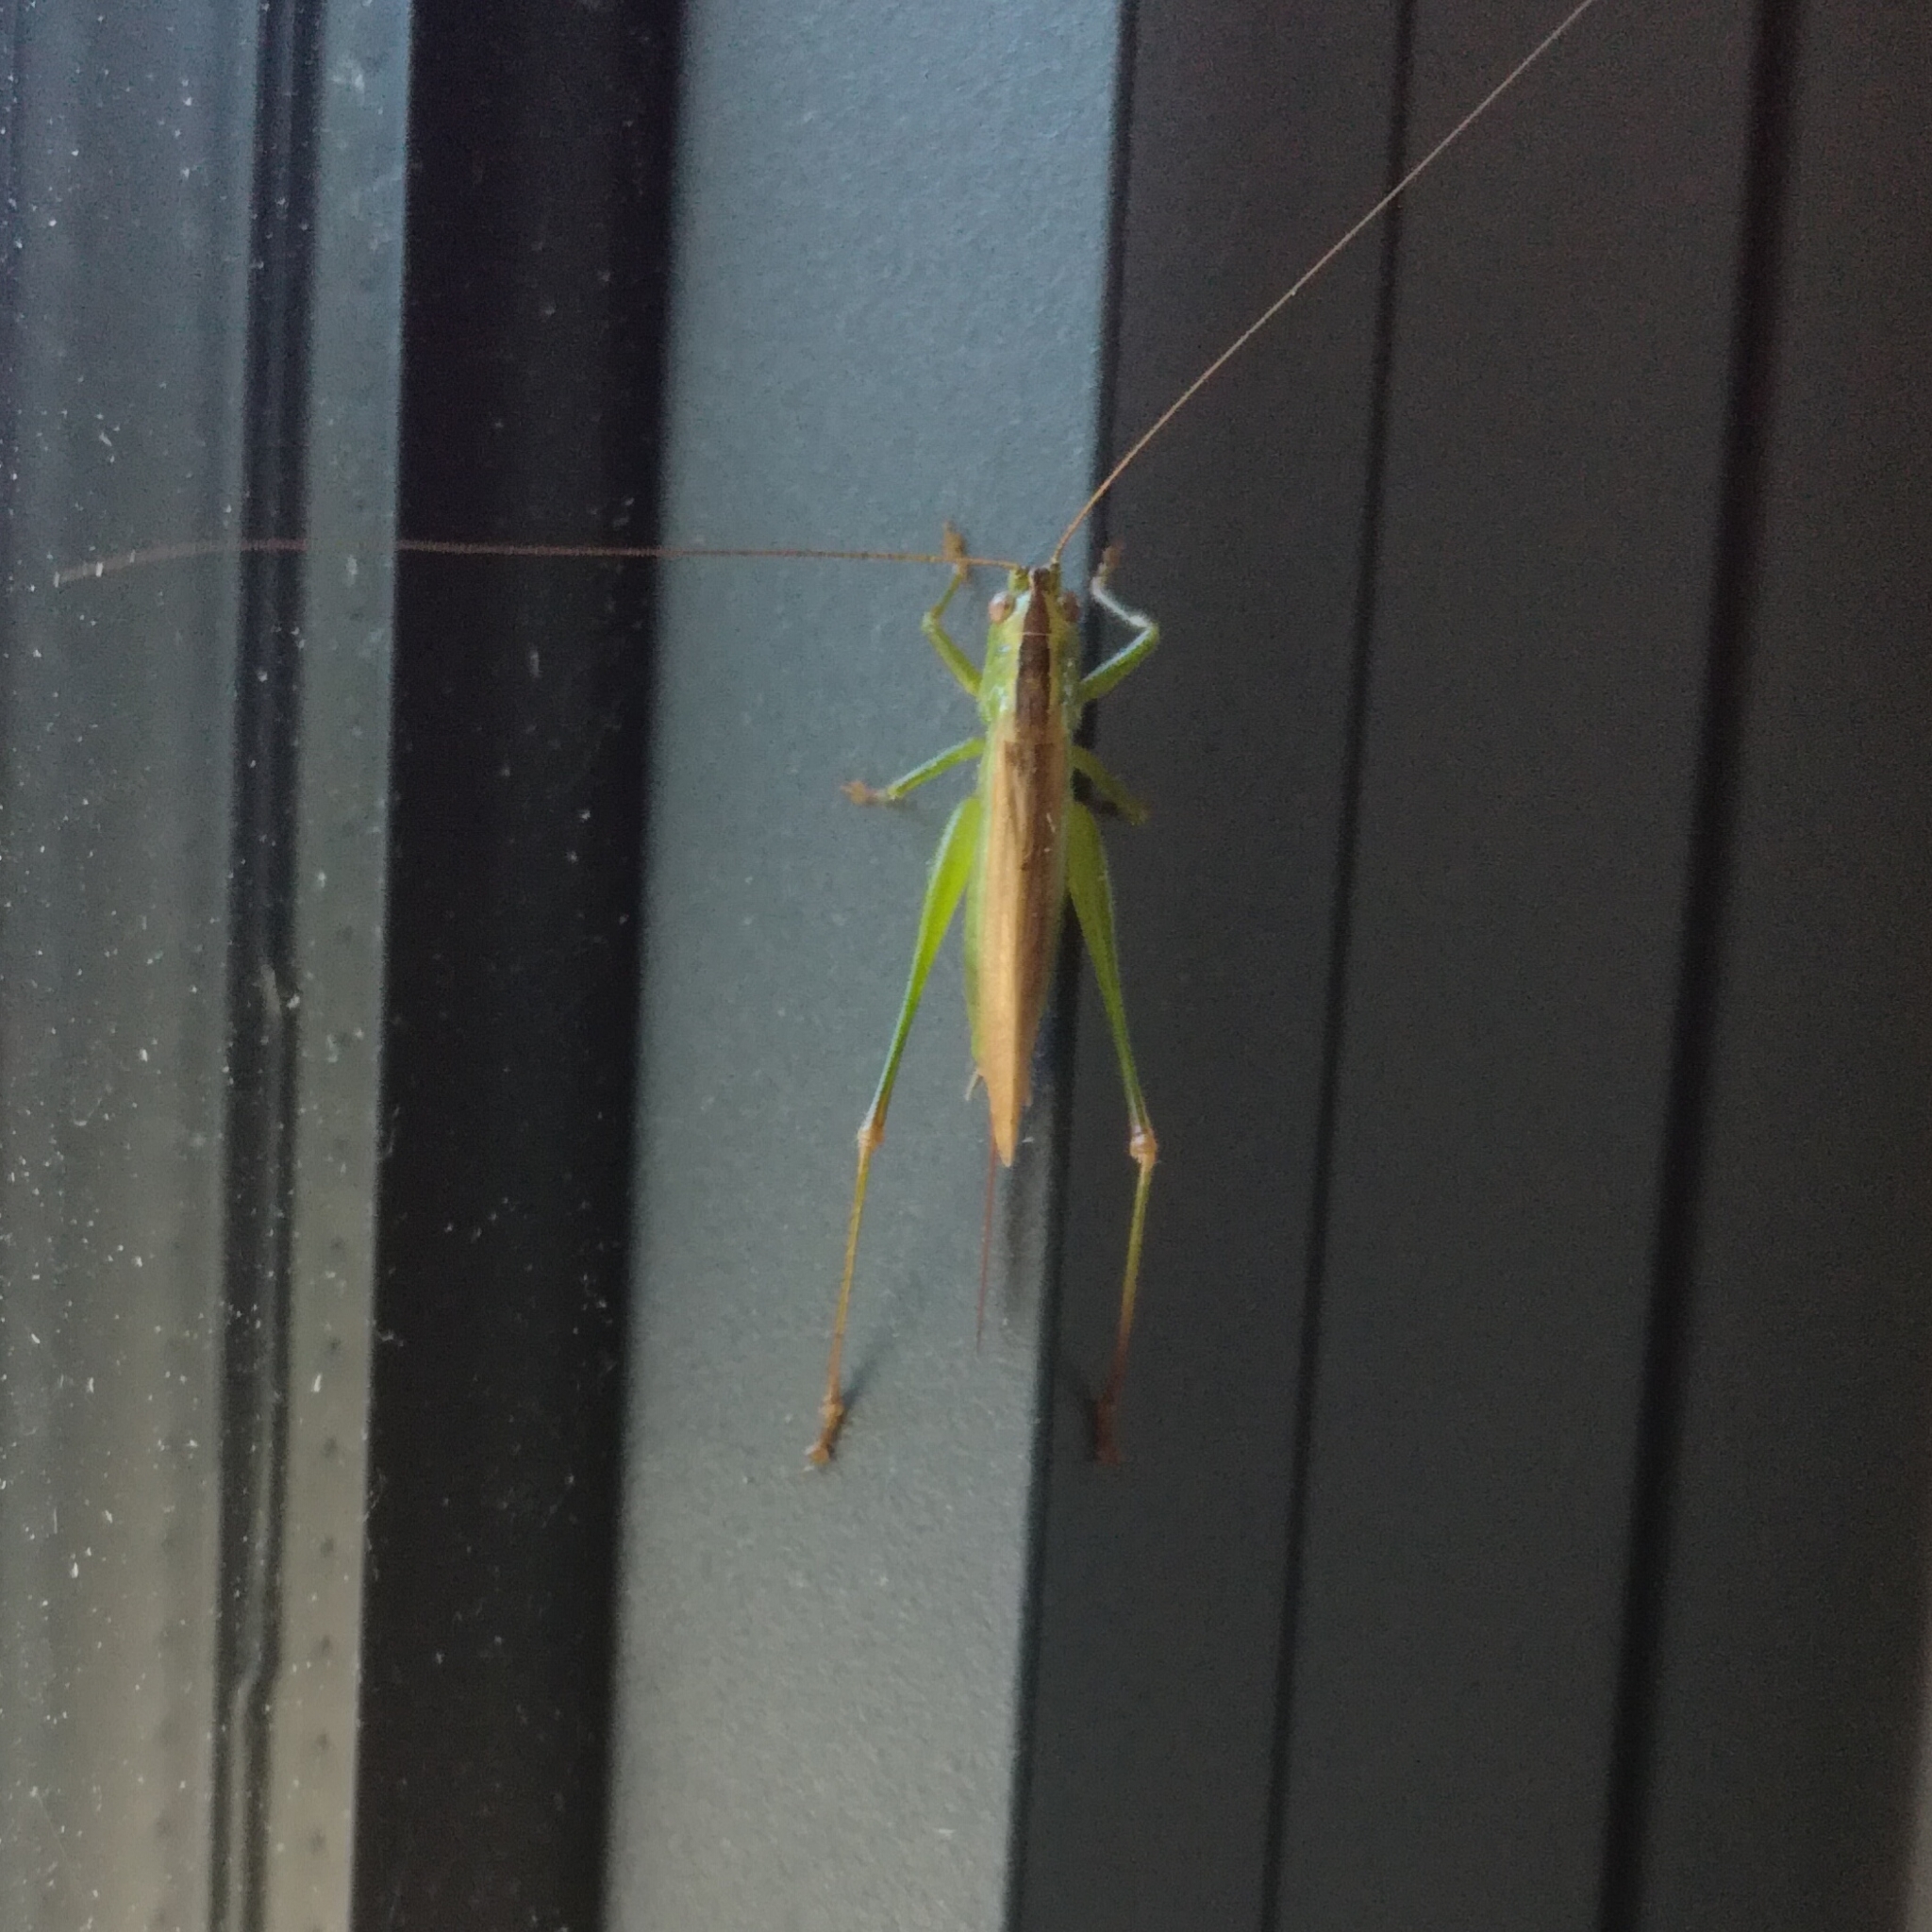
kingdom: Animalia
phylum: Arthropoda
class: Insecta
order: Orthoptera
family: Tettigoniidae
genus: Conocephalus
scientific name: Conocephalus fuscus
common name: Long-winged conehead
